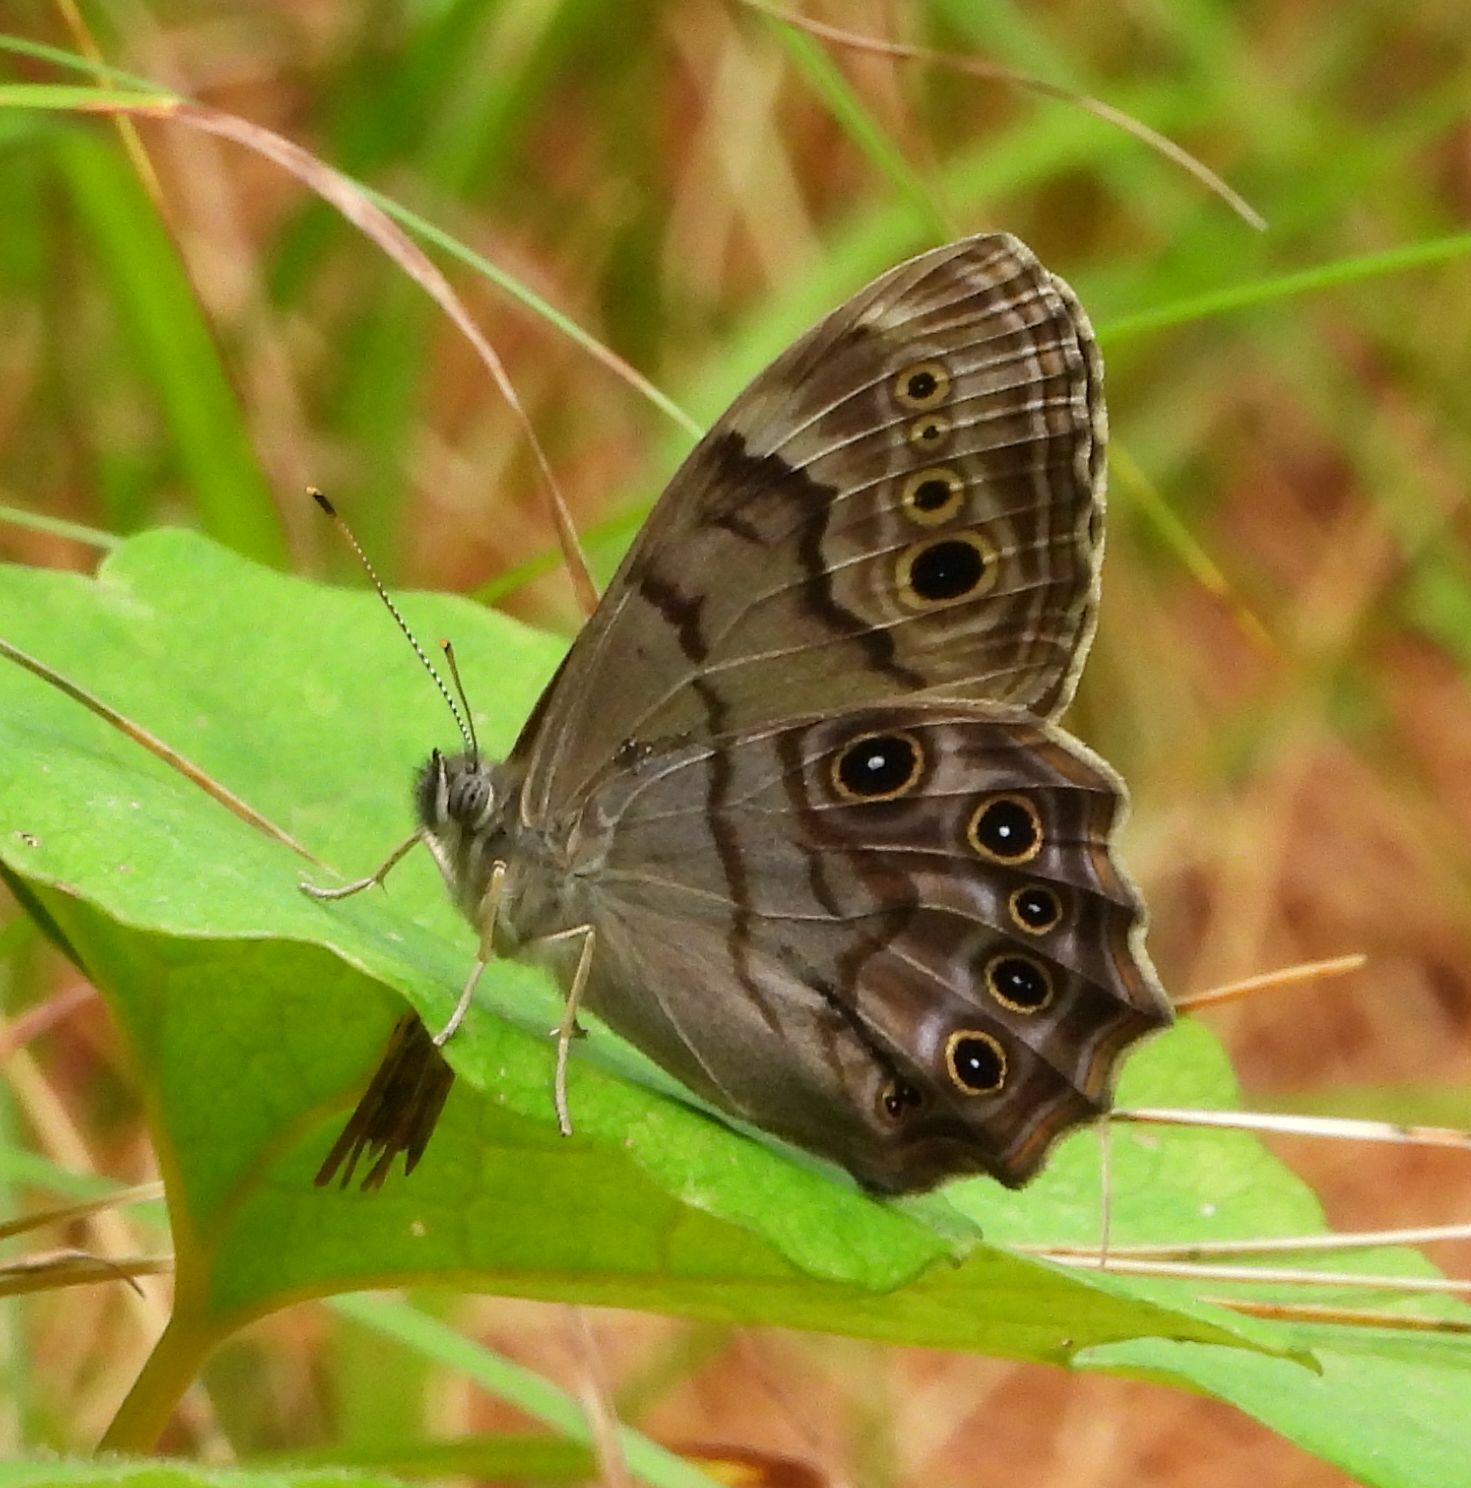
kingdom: Animalia
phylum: Arthropoda
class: Insecta
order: Lepidoptera
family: Nymphalidae
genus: Lethe
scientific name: Lethe anthedon
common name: Northern pearly-eye
